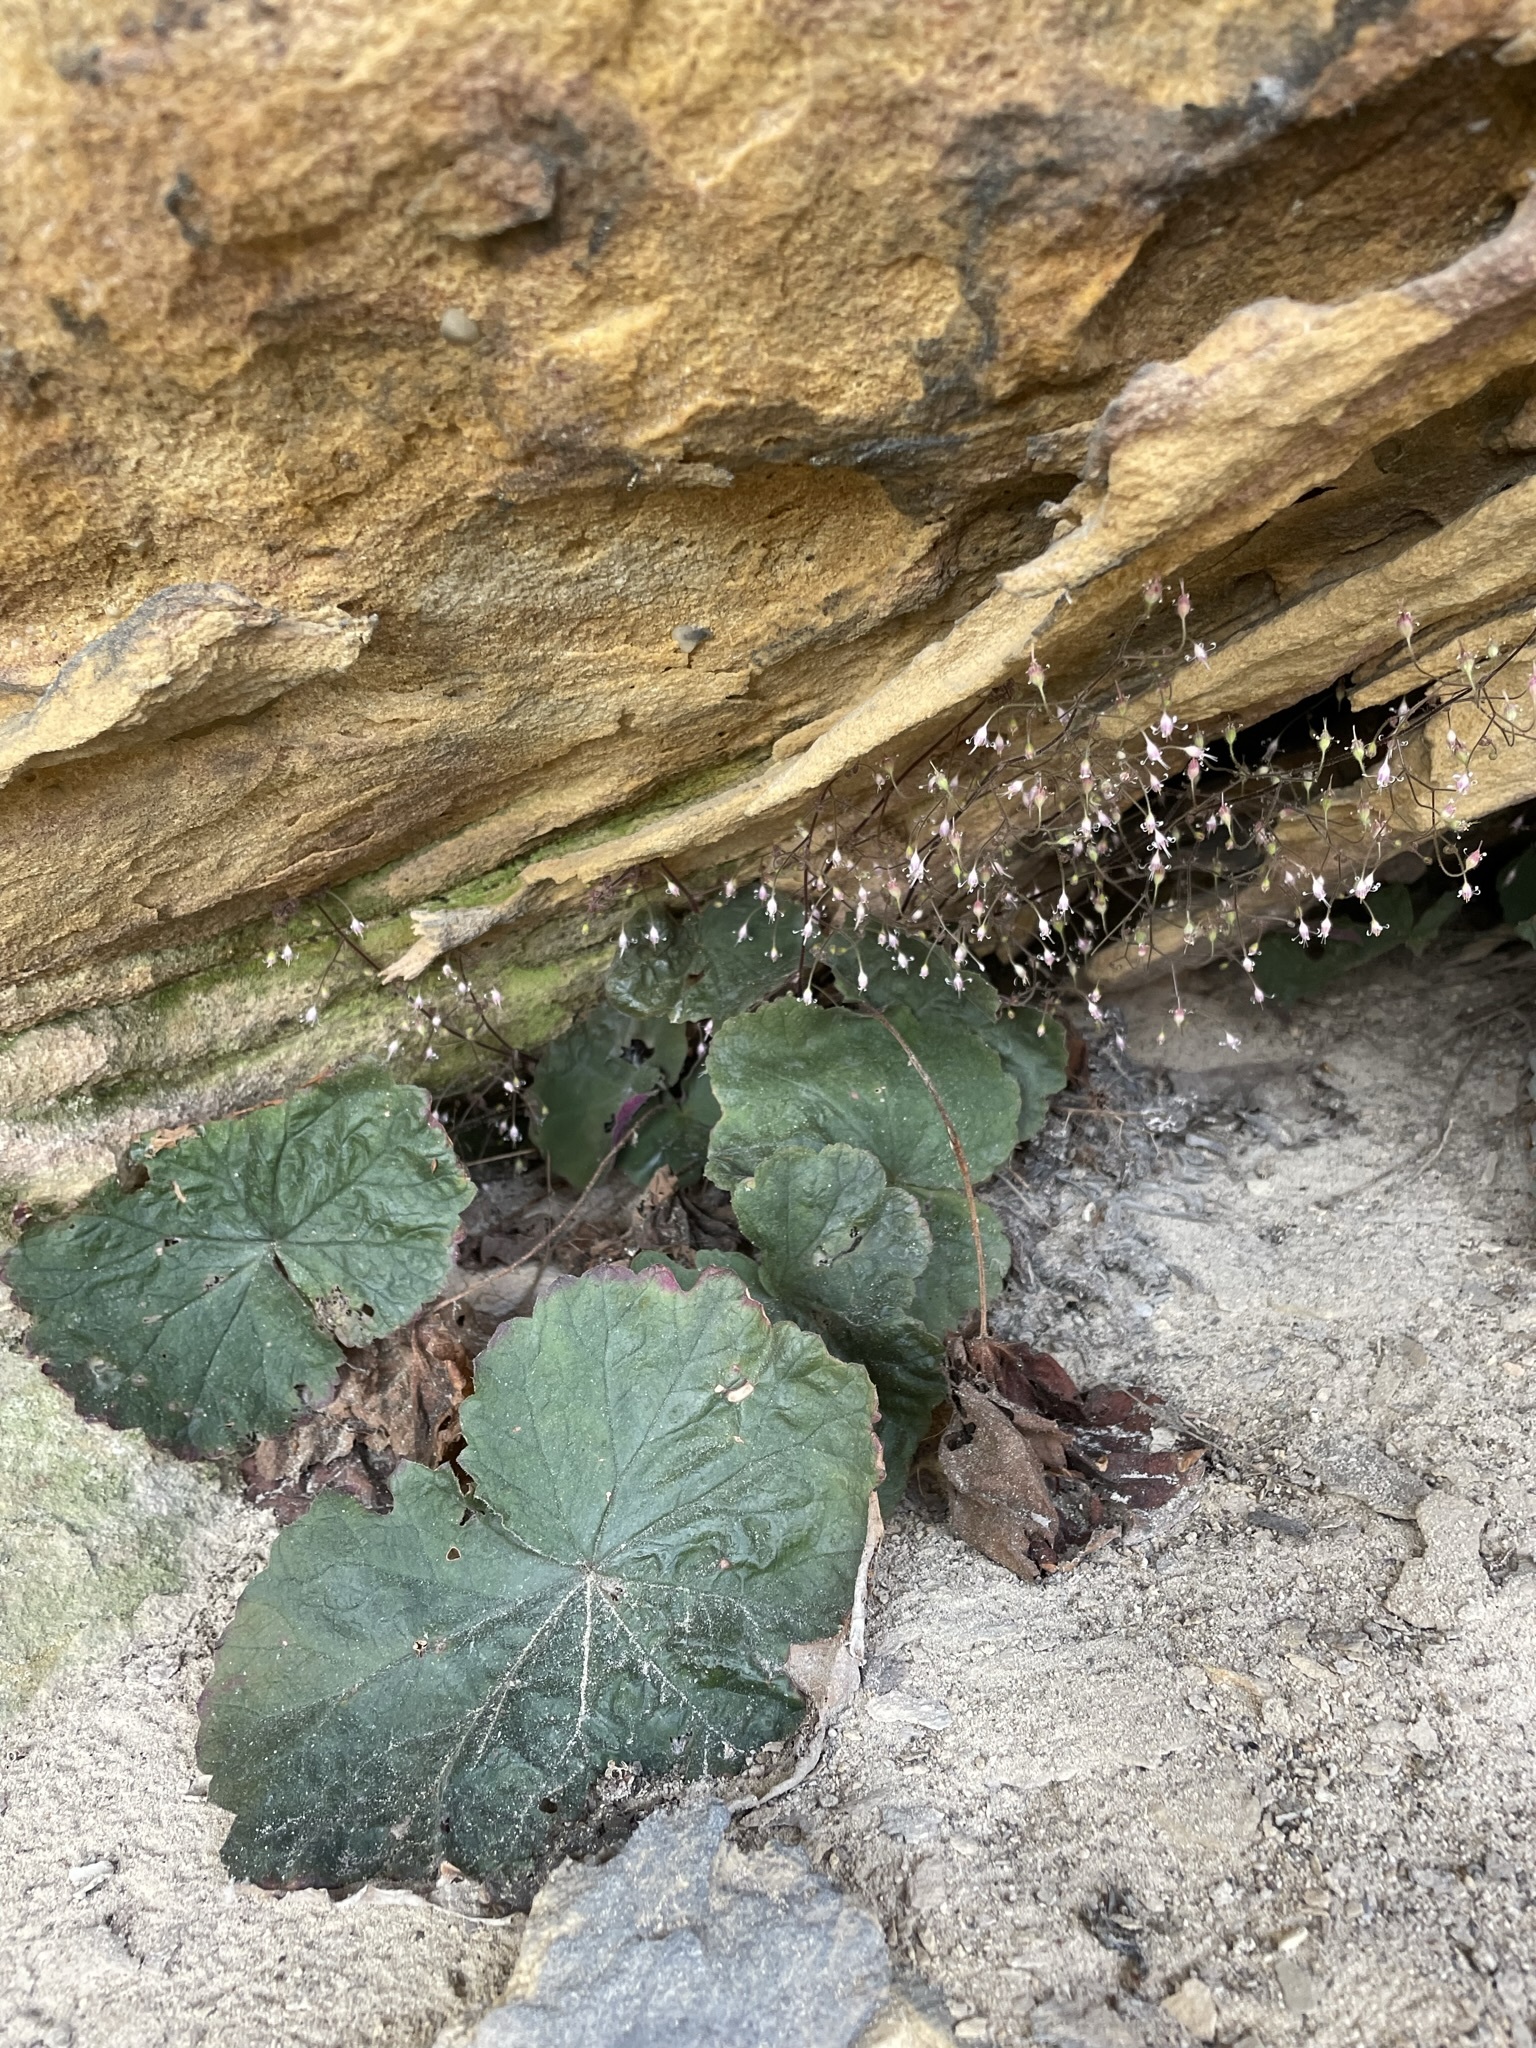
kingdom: Plantae
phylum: Tracheophyta
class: Magnoliopsida
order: Saxifragales
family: Saxifragaceae
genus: Heuchera
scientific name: Heuchera parviflora
